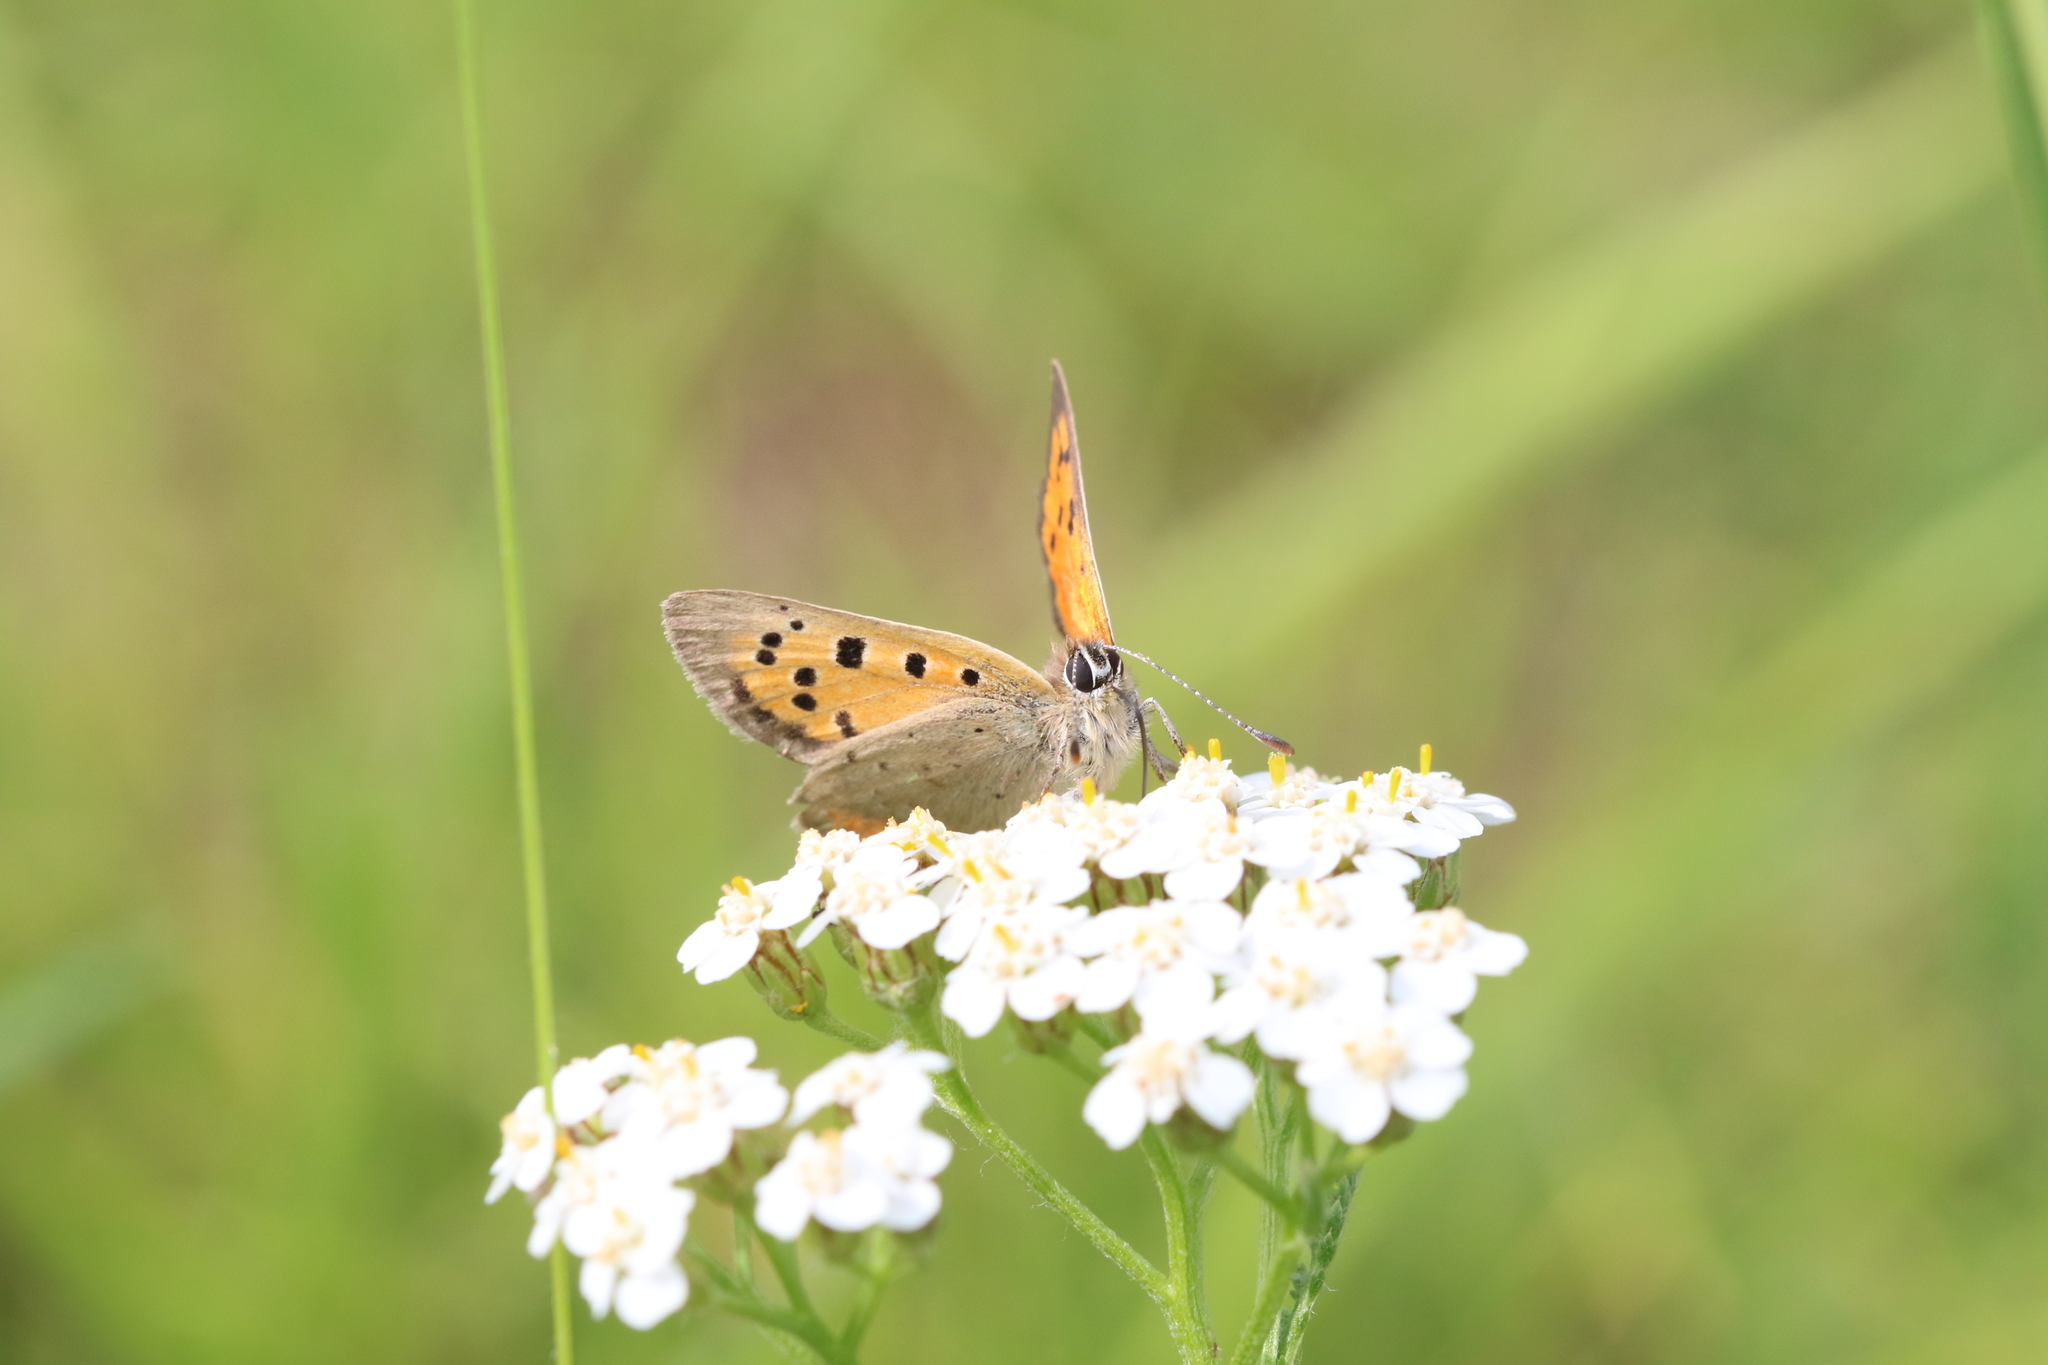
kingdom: Animalia
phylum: Arthropoda
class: Insecta
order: Lepidoptera
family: Lycaenidae
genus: Lycaena
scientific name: Lycaena phlaeas
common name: Small copper
